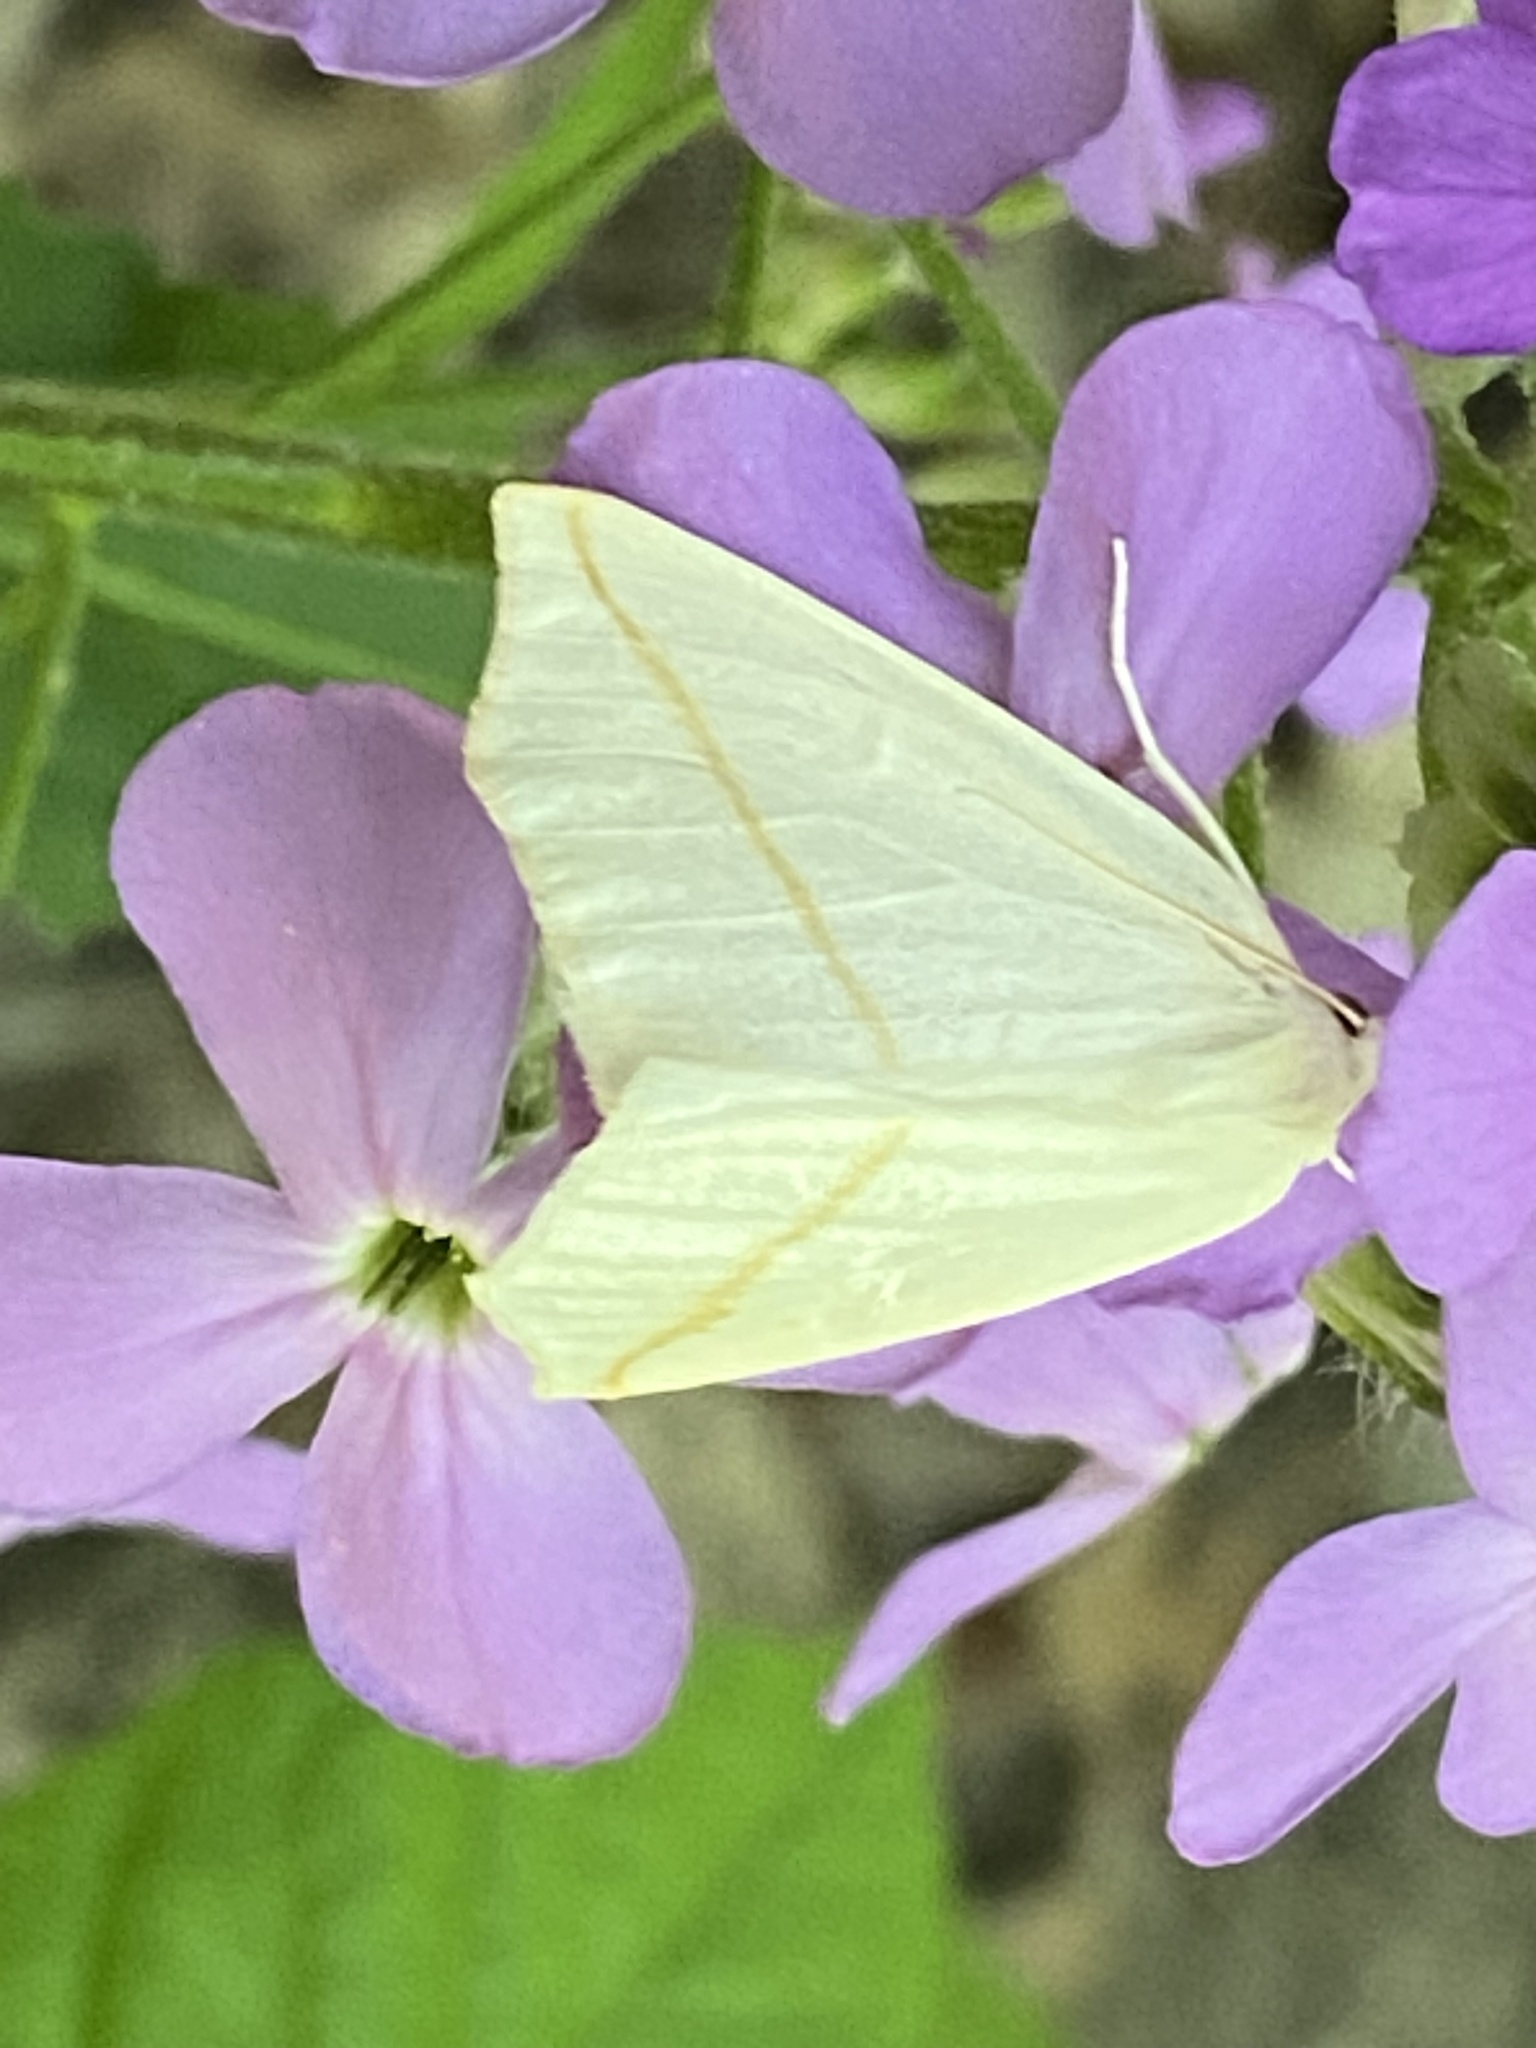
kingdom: Animalia
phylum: Arthropoda
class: Insecta
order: Lepidoptera
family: Geometridae
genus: Tetracis
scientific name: Tetracis cachexiata
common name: White slant-line
